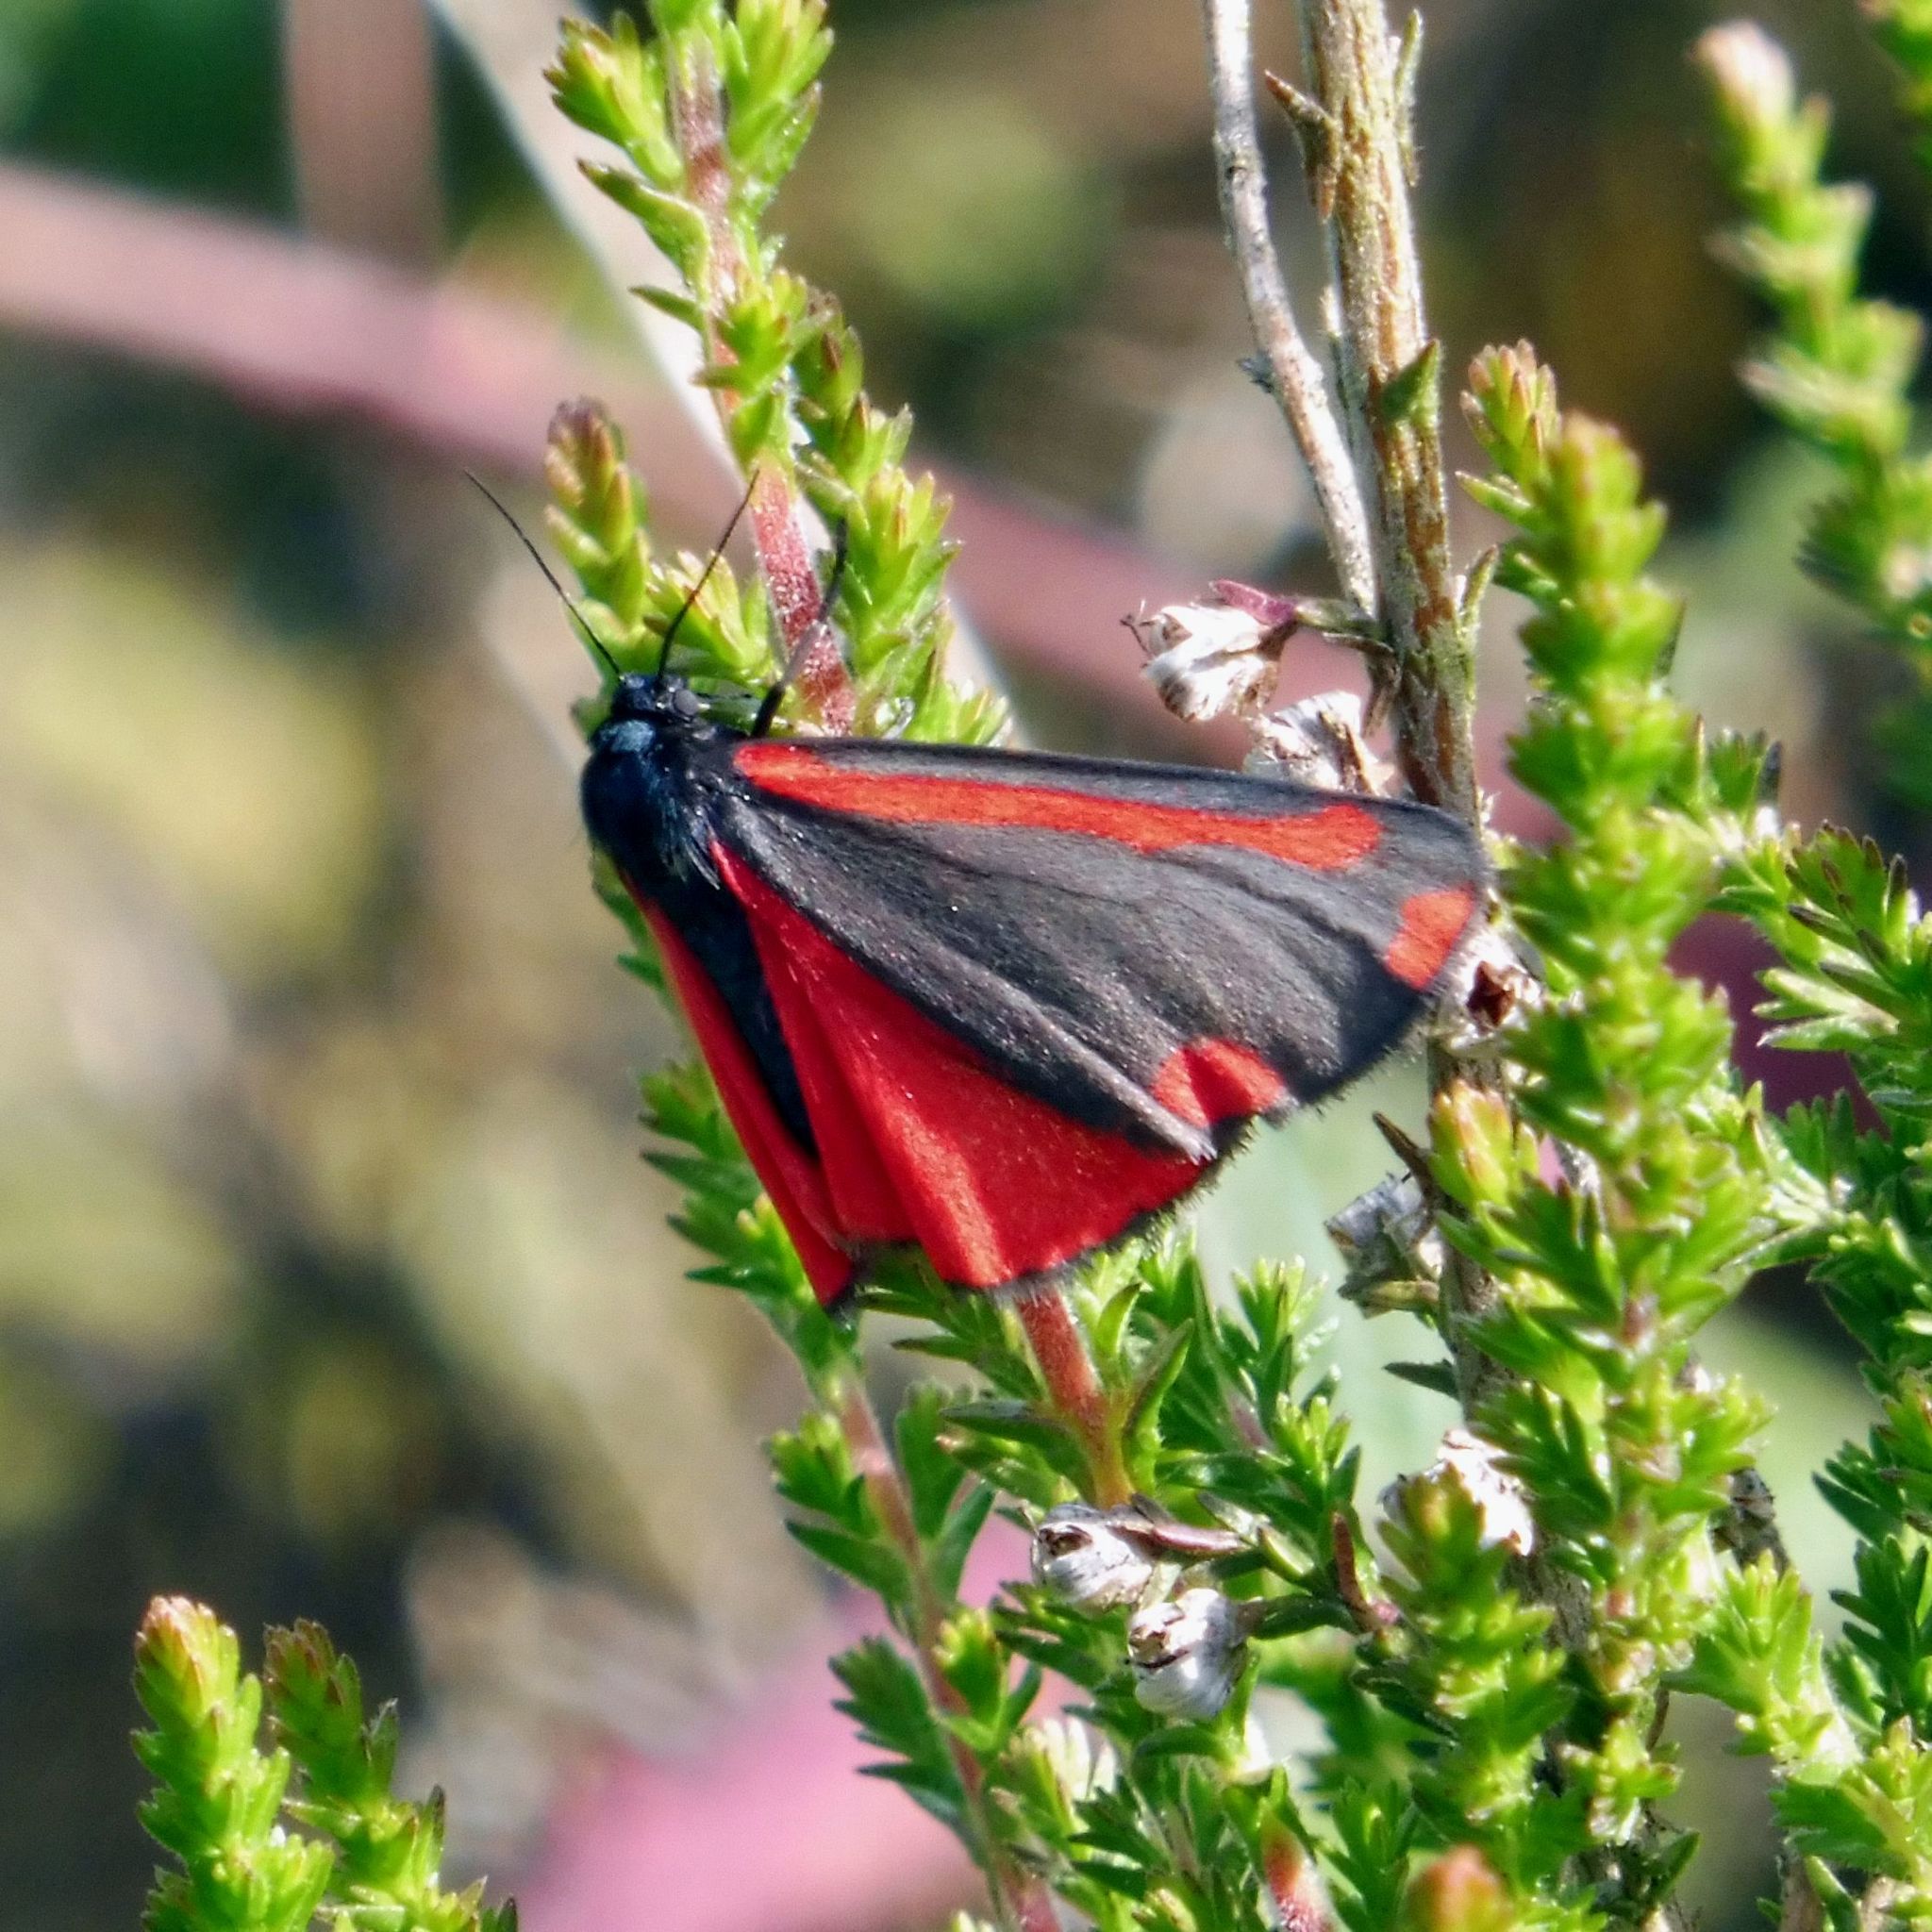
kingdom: Animalia
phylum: Arthropoda
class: Insecta
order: Lepidoptera
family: Erebidae
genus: Tyria
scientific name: Tyria jacobaeae
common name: Cinnabar
